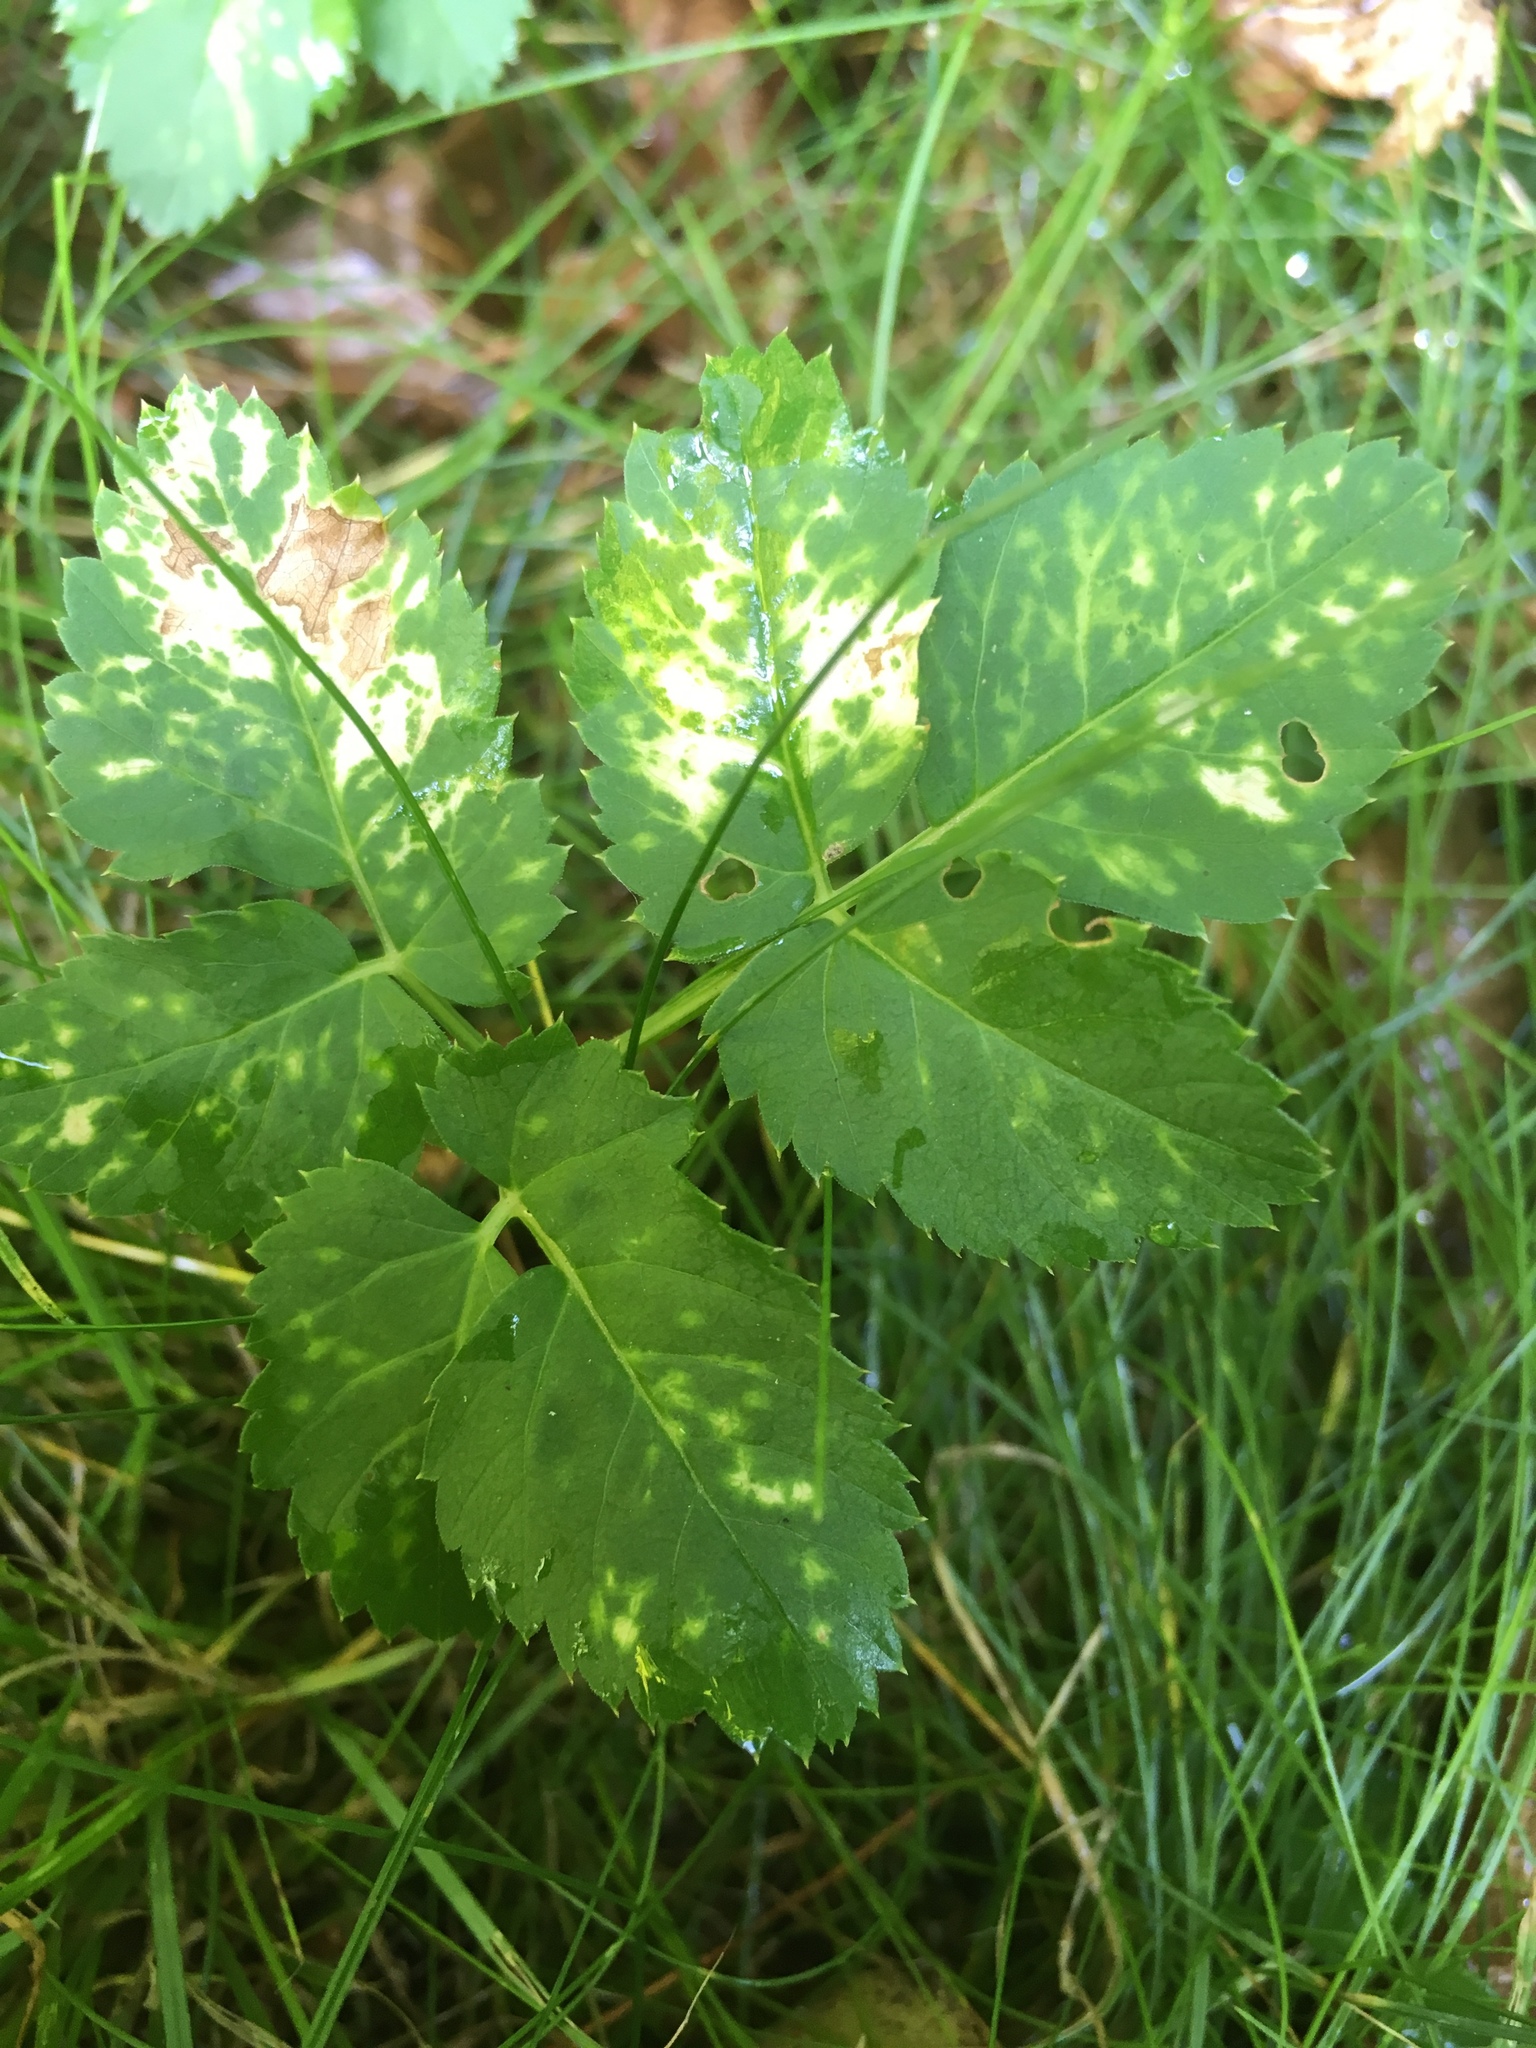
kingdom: Plantae
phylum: Tracheophyta
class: Magnoliopsida
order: Apiales
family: Apiaceae
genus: Aegopodium
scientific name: Aegopodium podagraria
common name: Ground-elder
